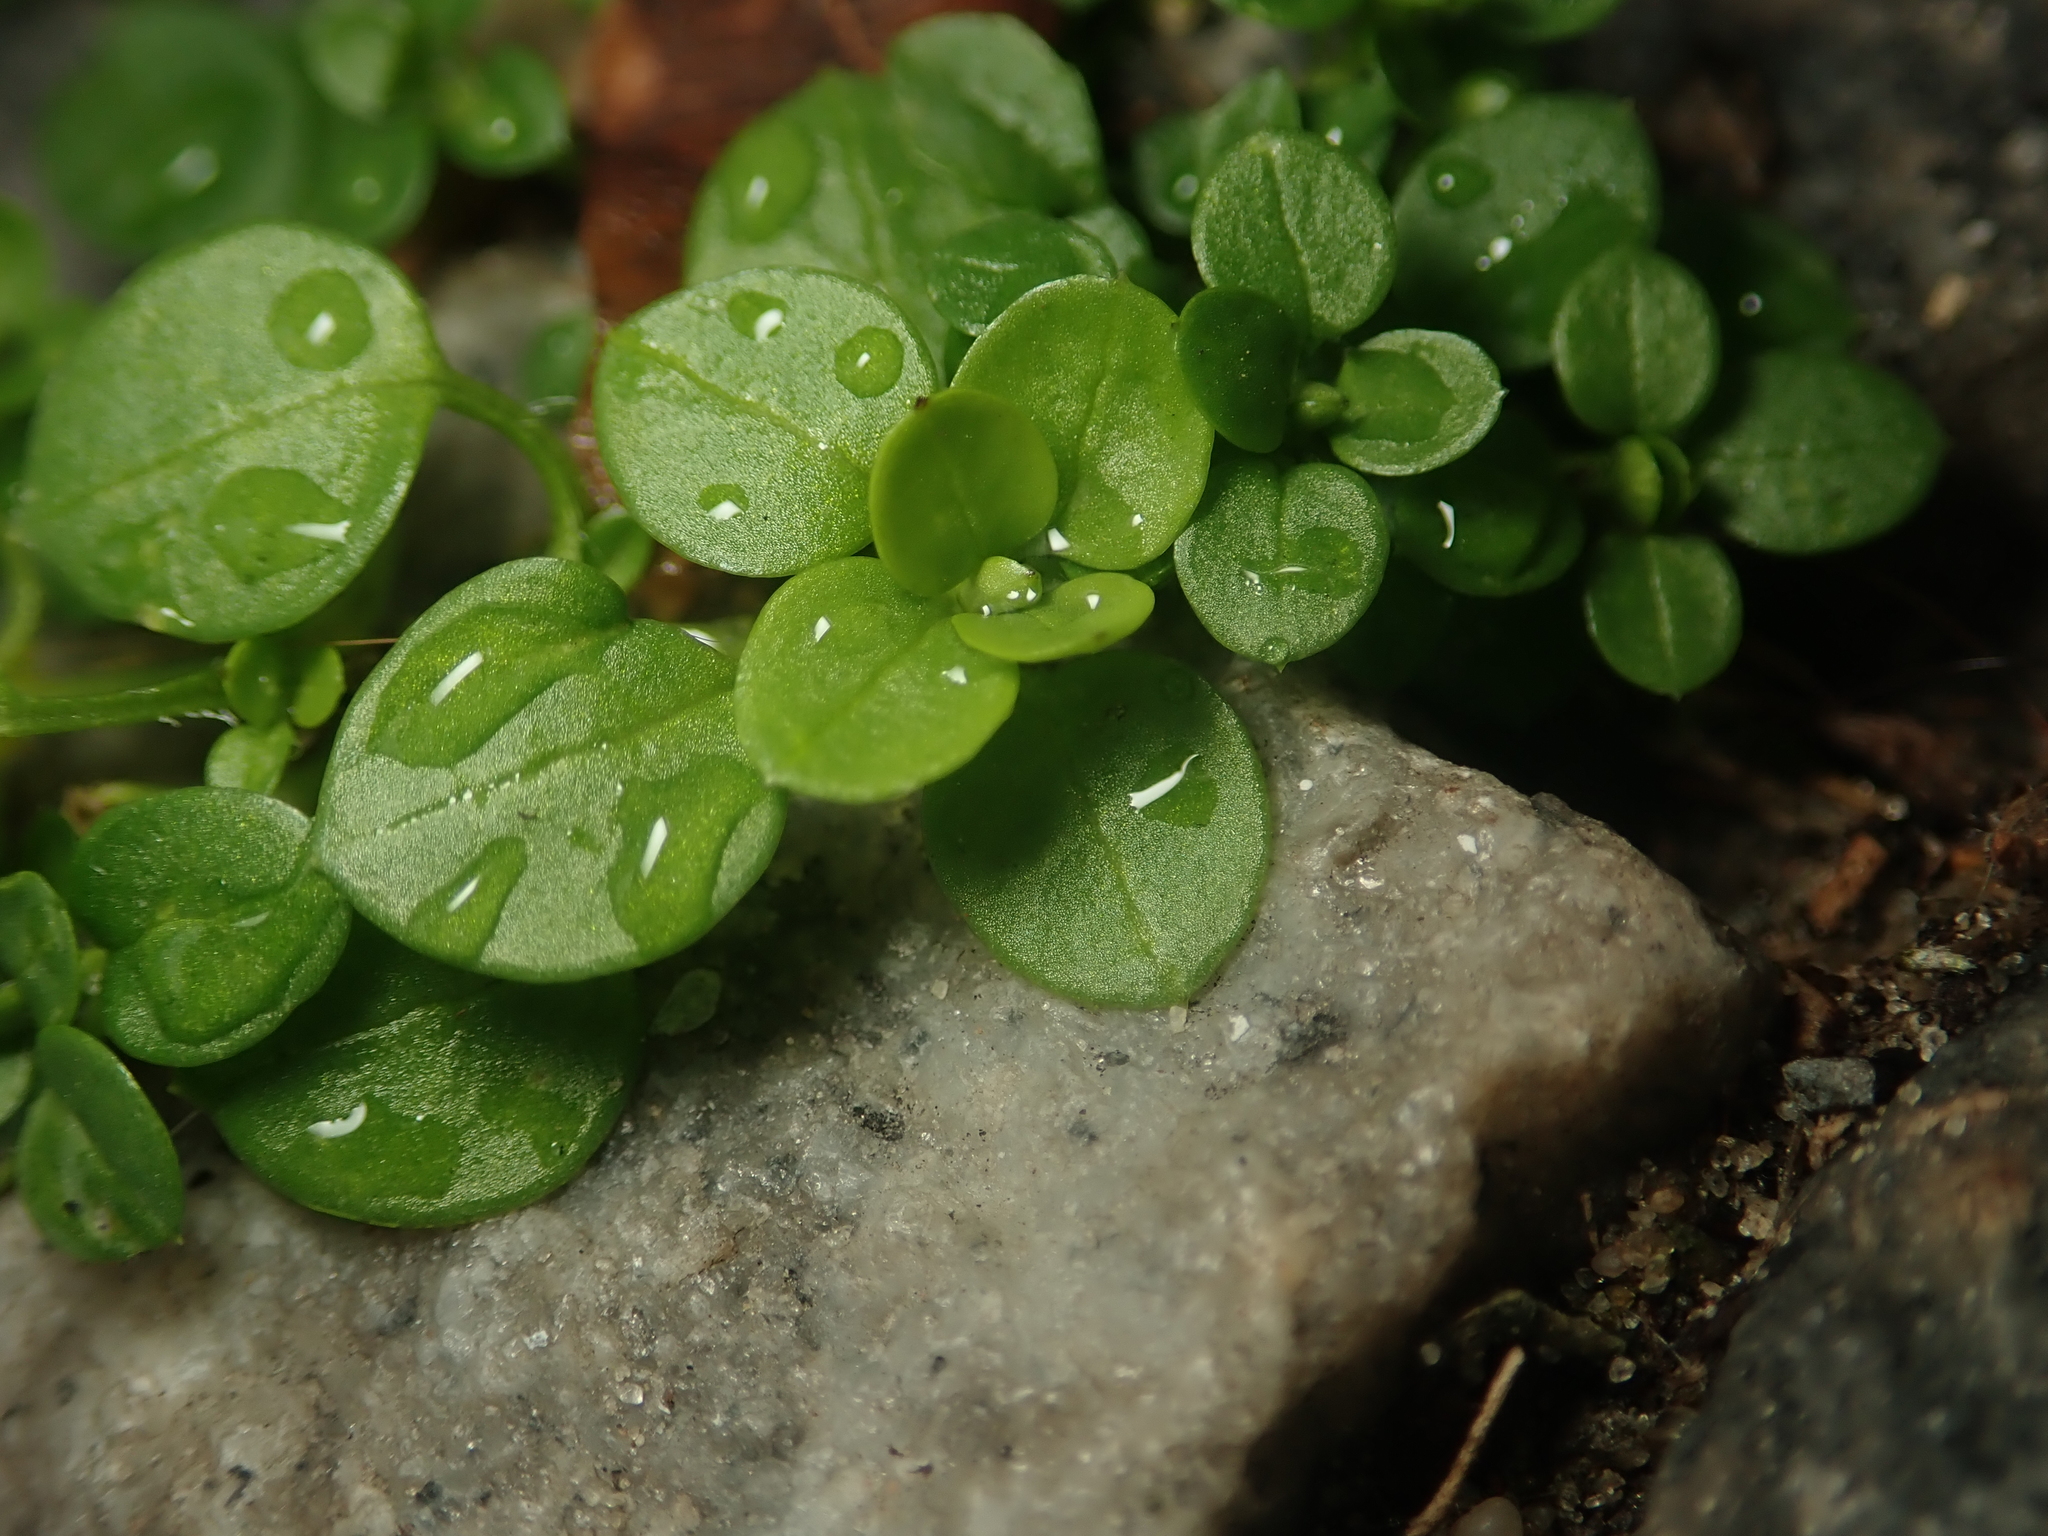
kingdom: Plantae
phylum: Tracheophyta
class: Magnoliopsida
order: Caryophyllales
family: Caryophyllaceae
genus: Stellaria
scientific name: Stellaria media
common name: Common chickweed
